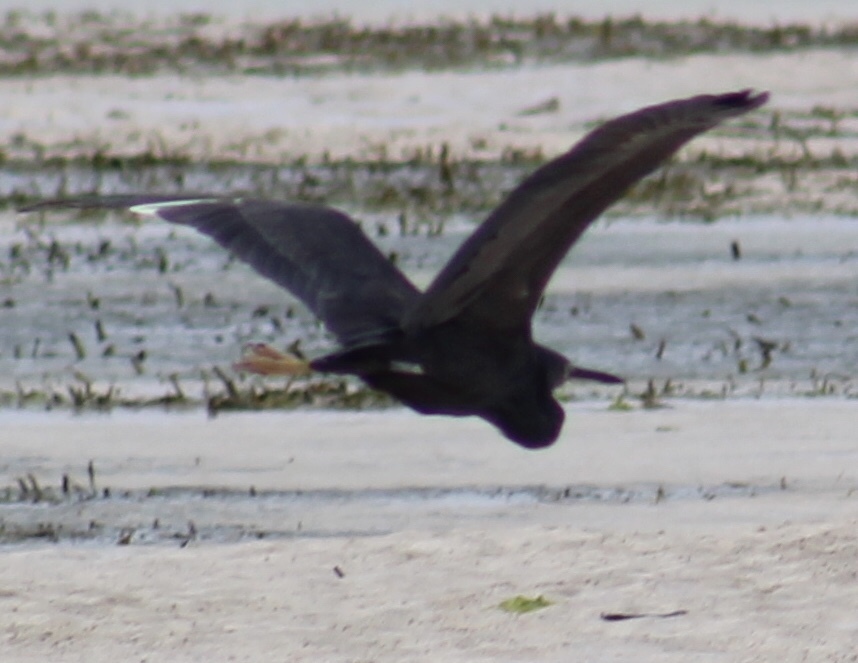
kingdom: Animalia
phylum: Chordata
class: Aves
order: Pelecaniformes
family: Ardeidae
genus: Egretta
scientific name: Egretta dimorpha
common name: Dimorphic egret
